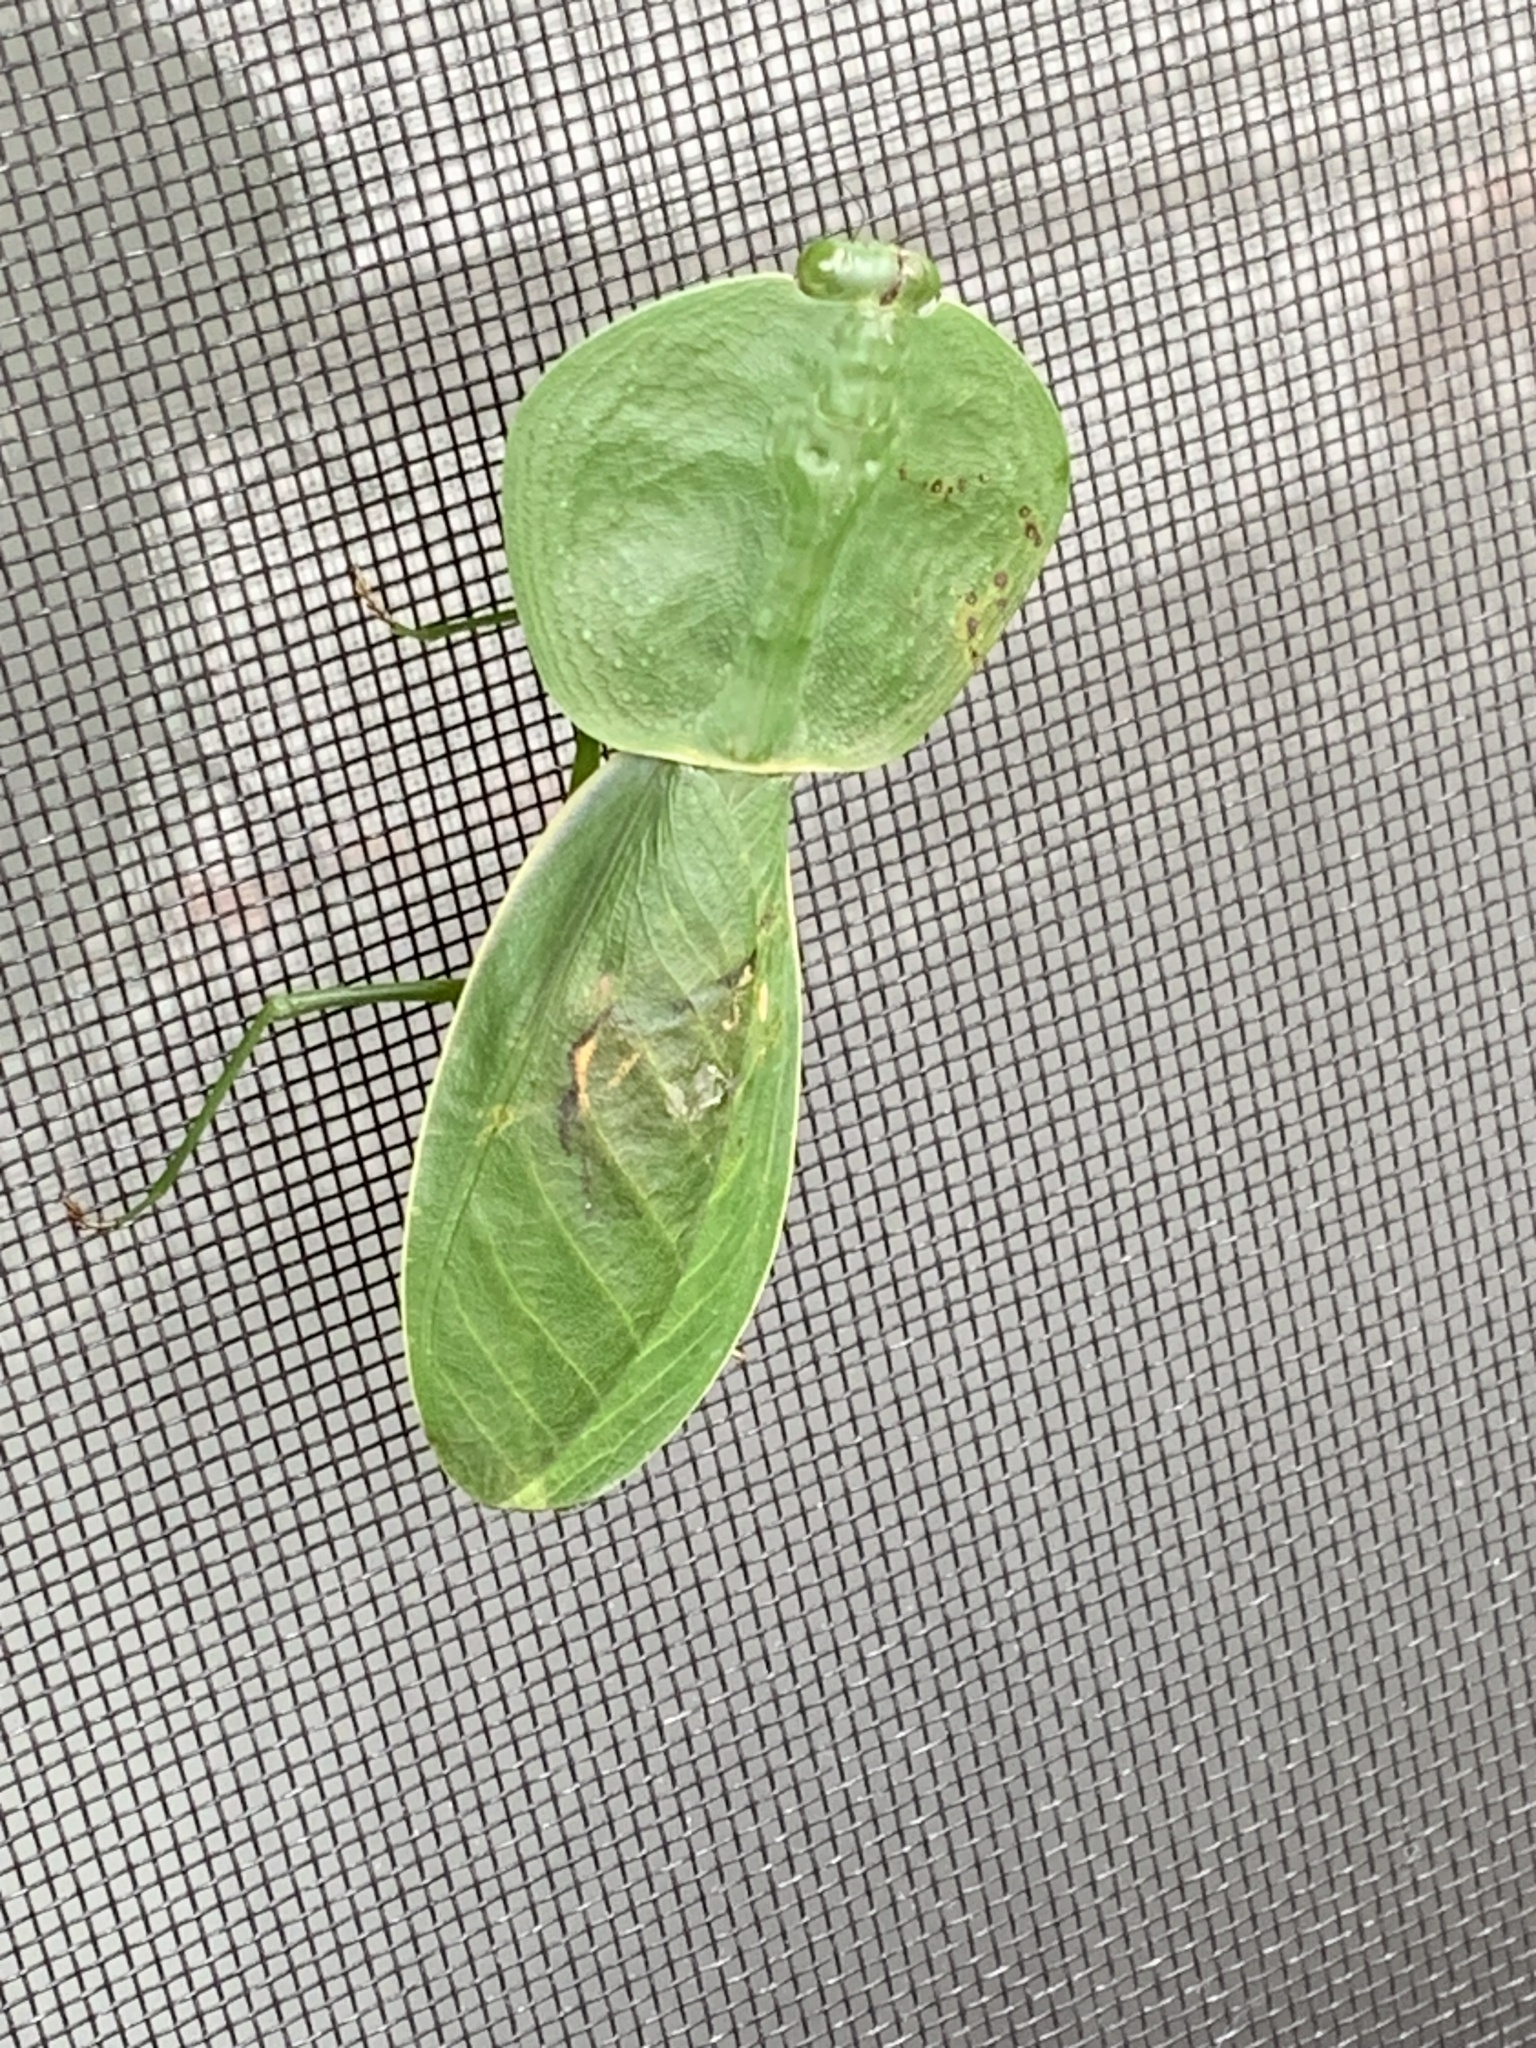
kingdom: Animalia
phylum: Arthropoda
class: Insecta
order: Mantodea
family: Mantidae
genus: Choeradodis
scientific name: Choeradodis rhombicollis
